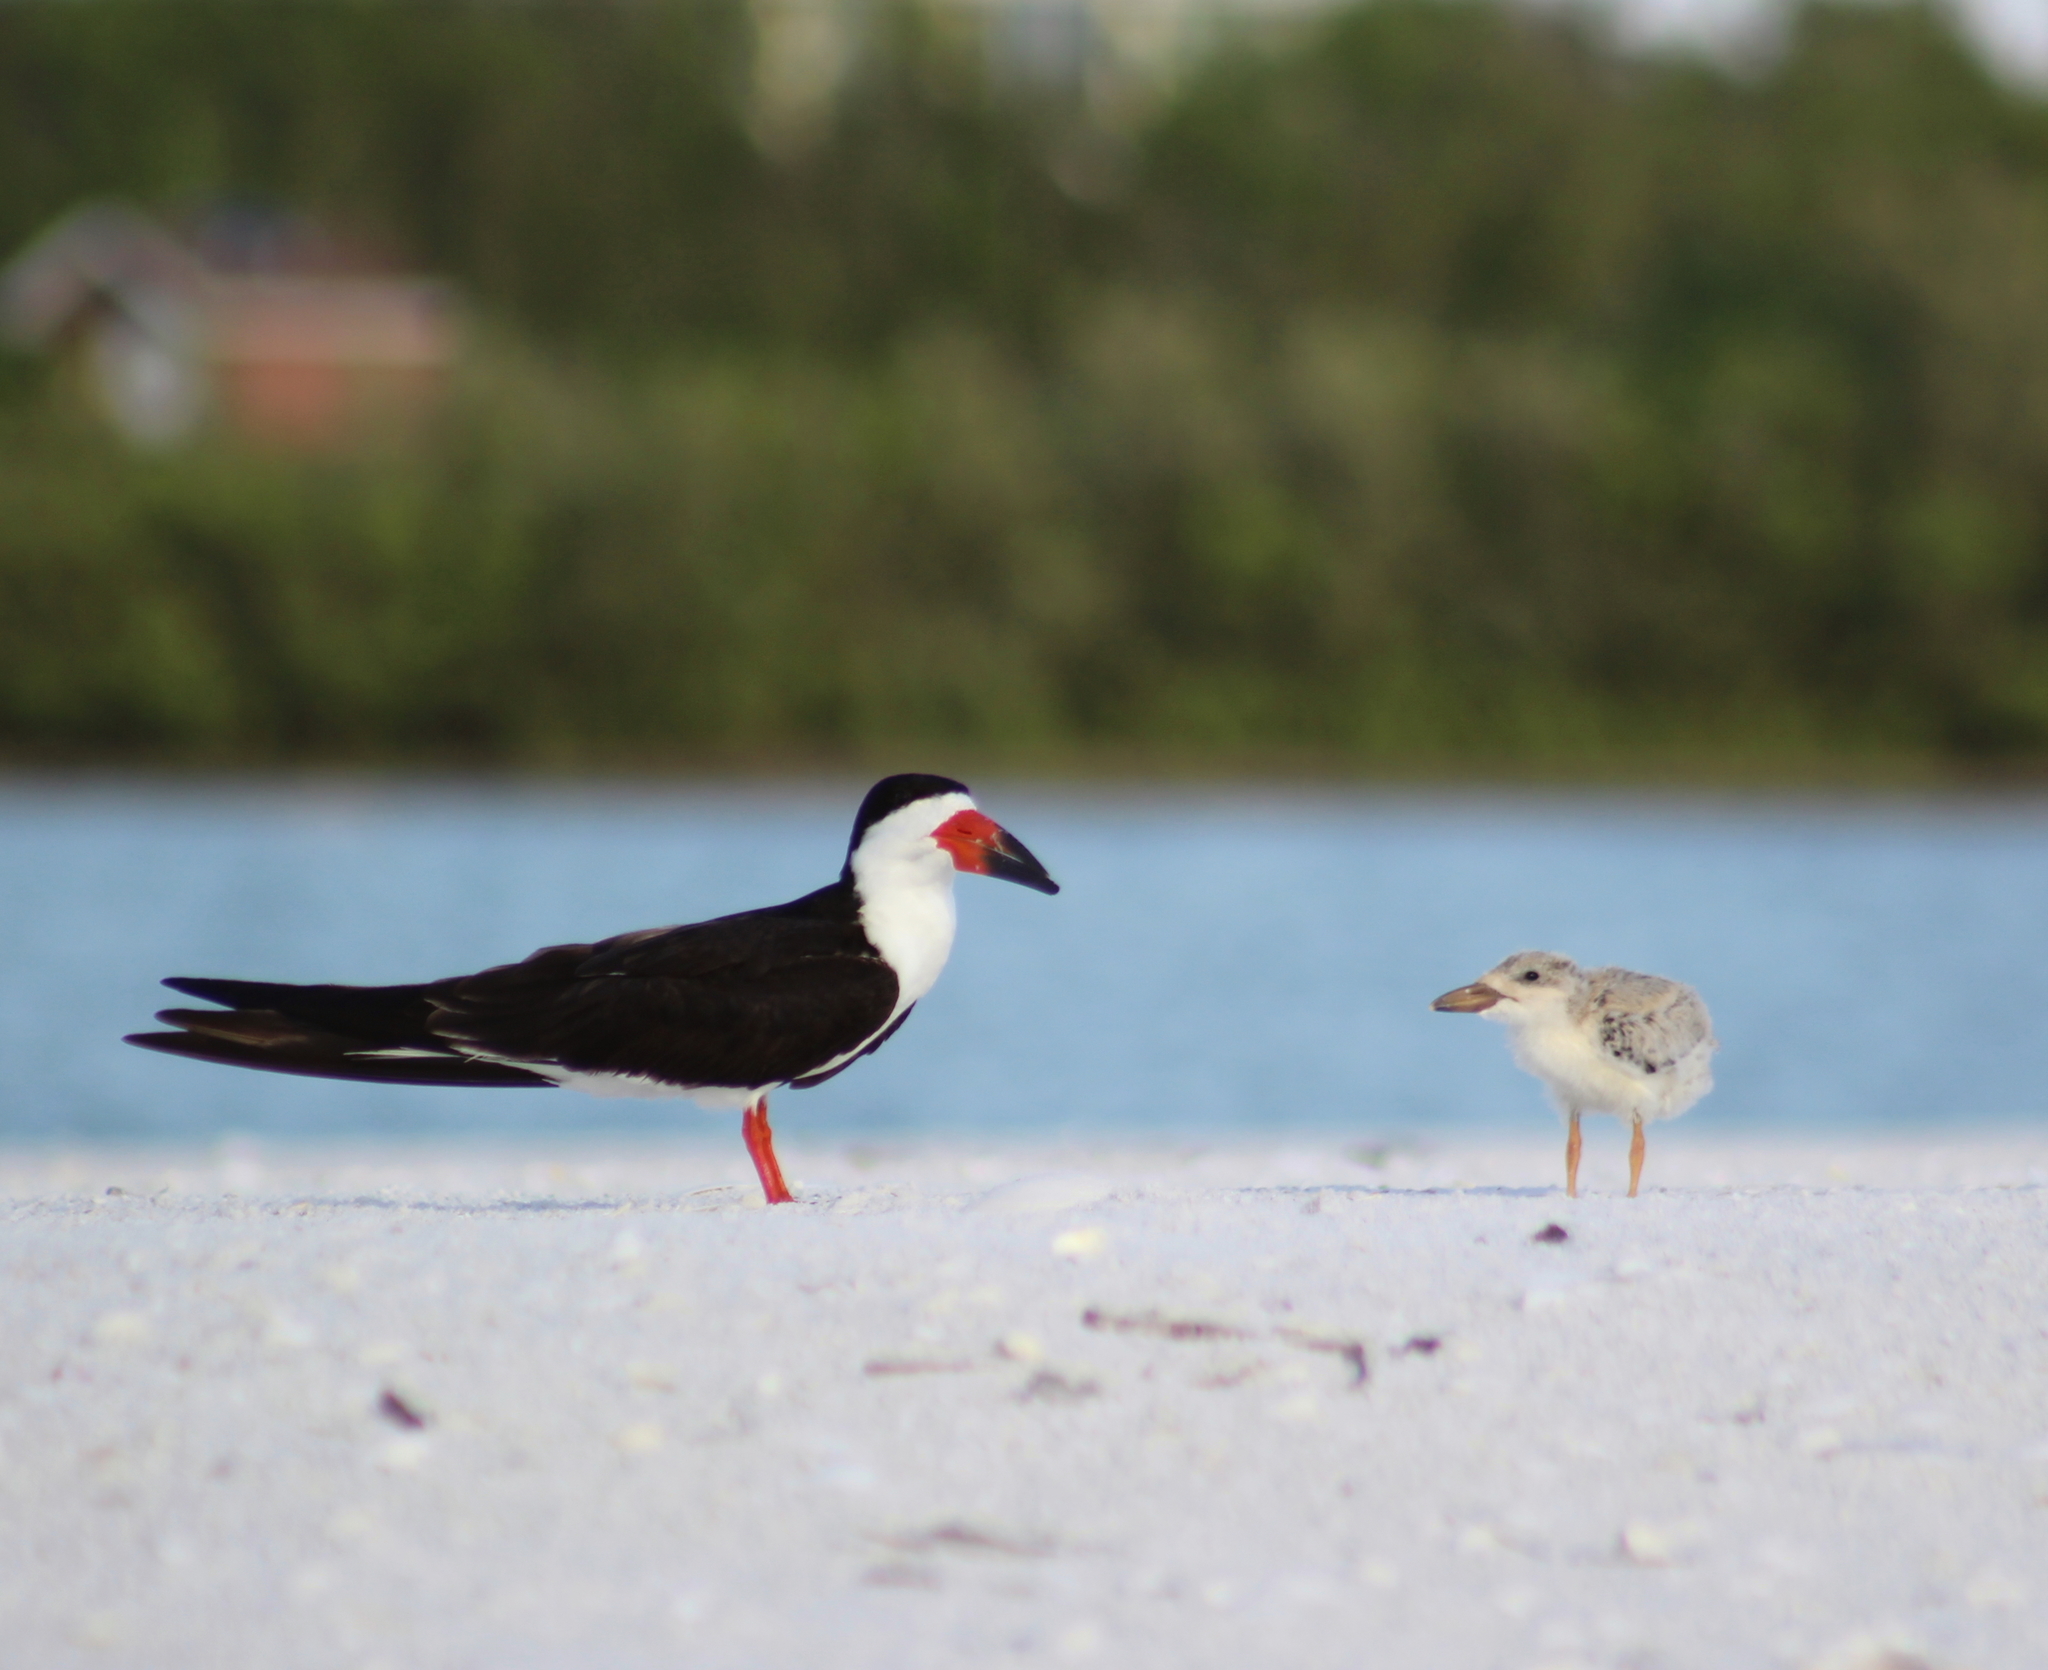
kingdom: Animalia
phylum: Chordata
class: Aves
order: Charadriiformes
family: Laridae
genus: Rynchops
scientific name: Rynchops niger
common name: Black skimmer
